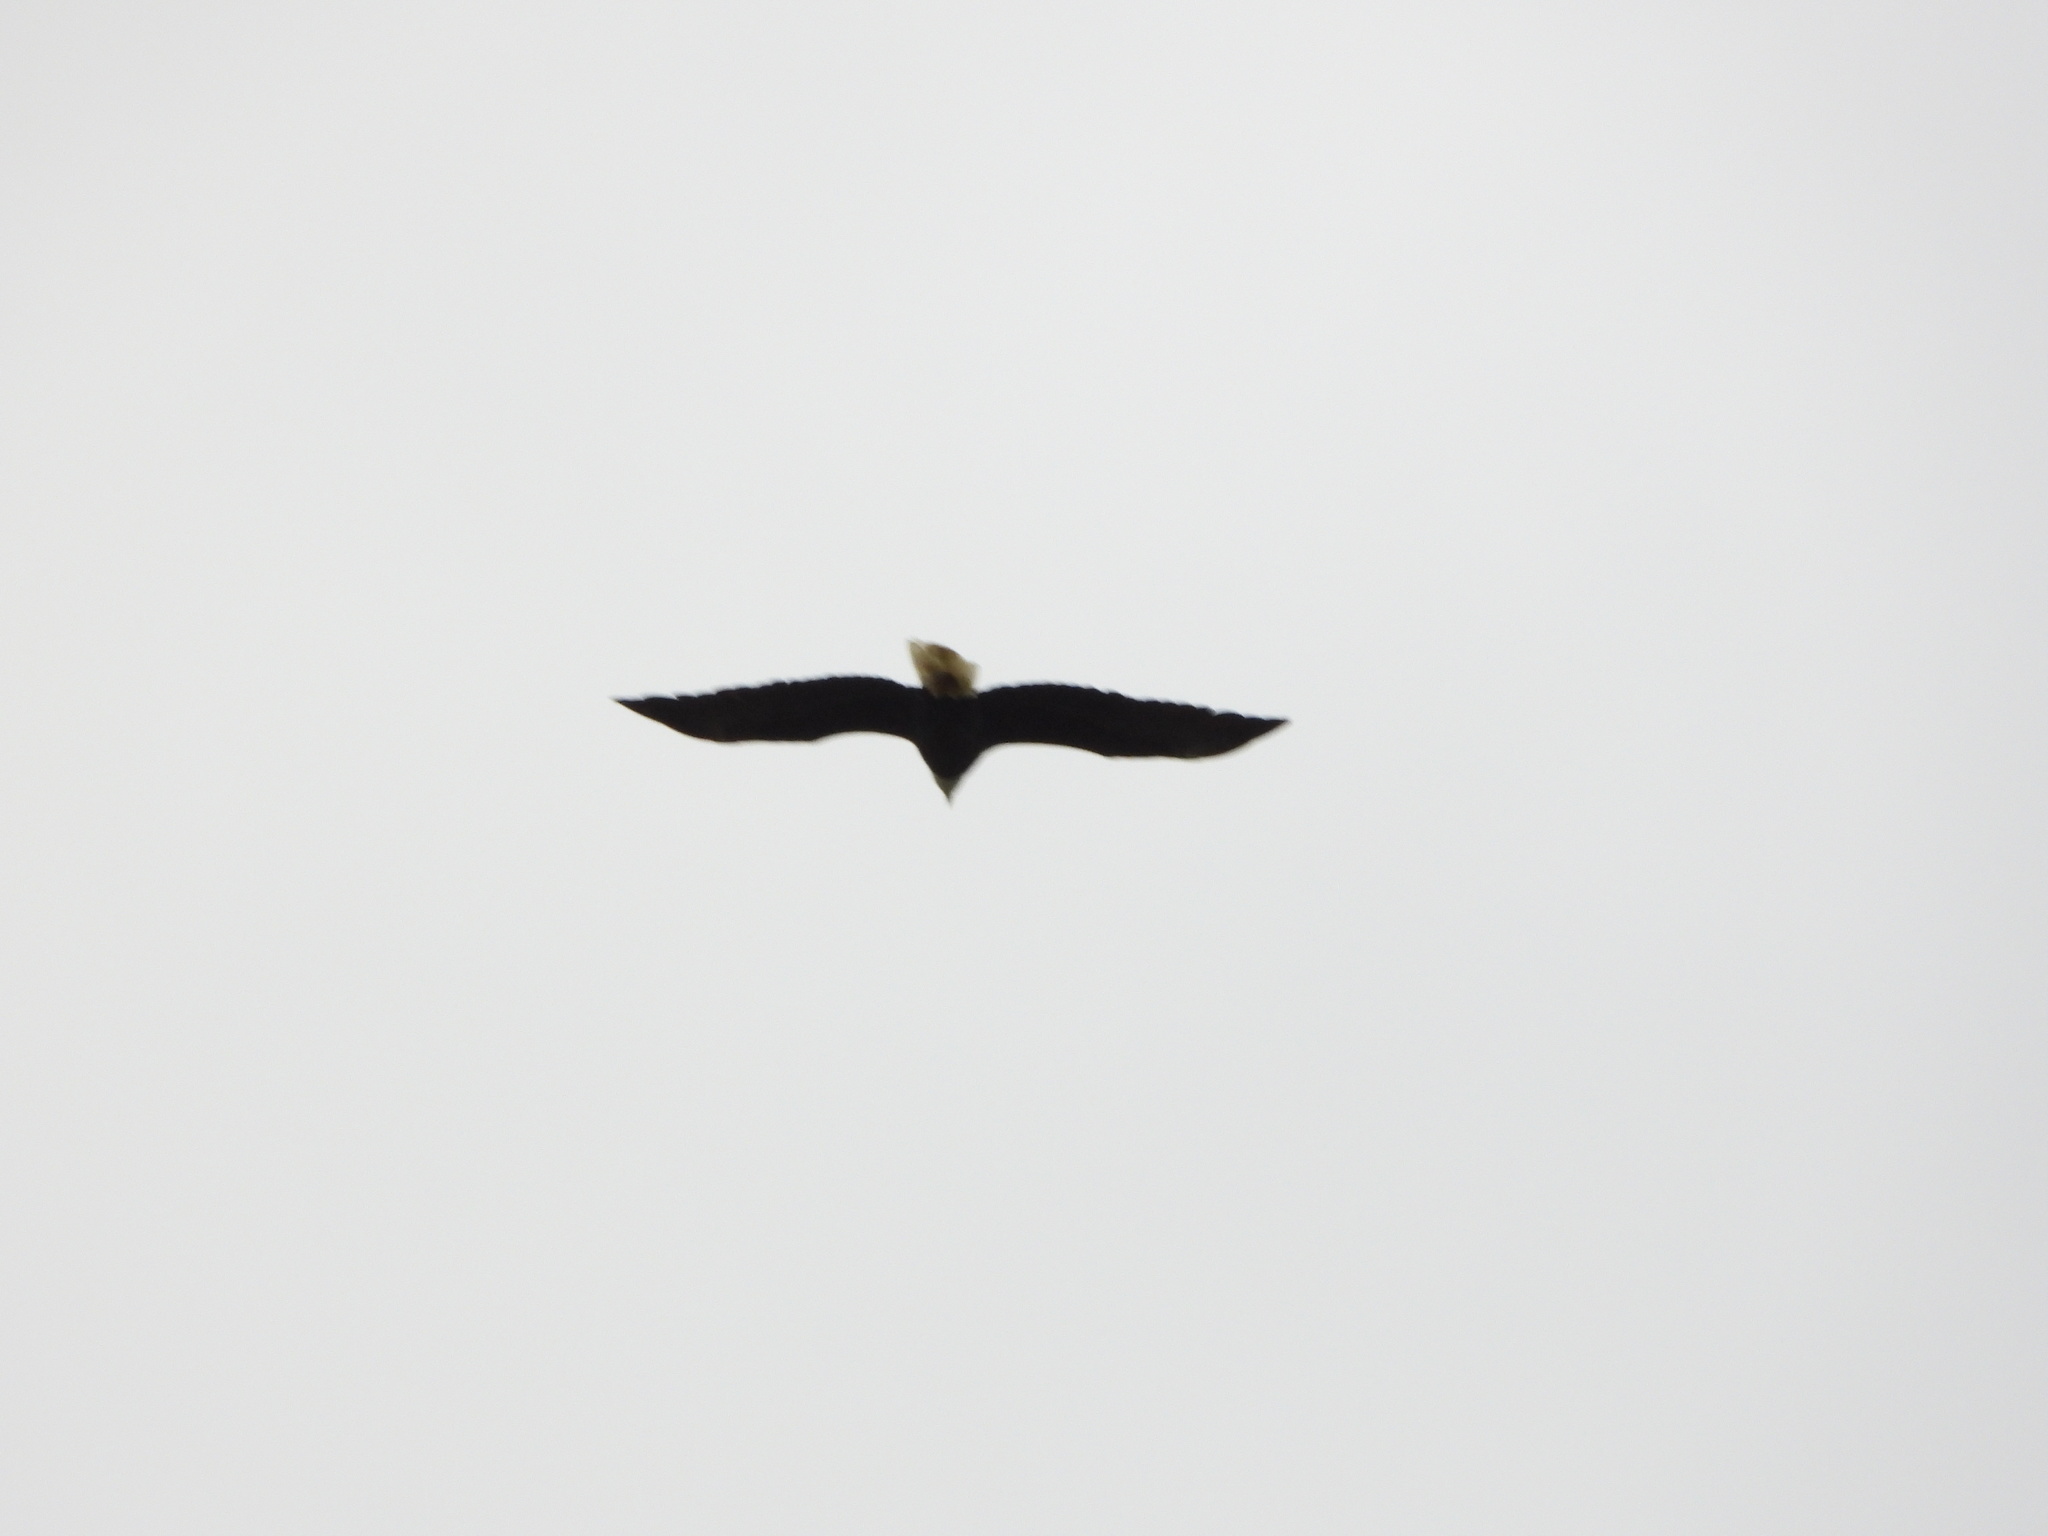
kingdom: Animalia
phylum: Chordata
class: Aves
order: Accipitriformes
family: Accipitridae
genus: Haliaeetus
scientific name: Haliaeetus leucocephalus
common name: Bald eagle
